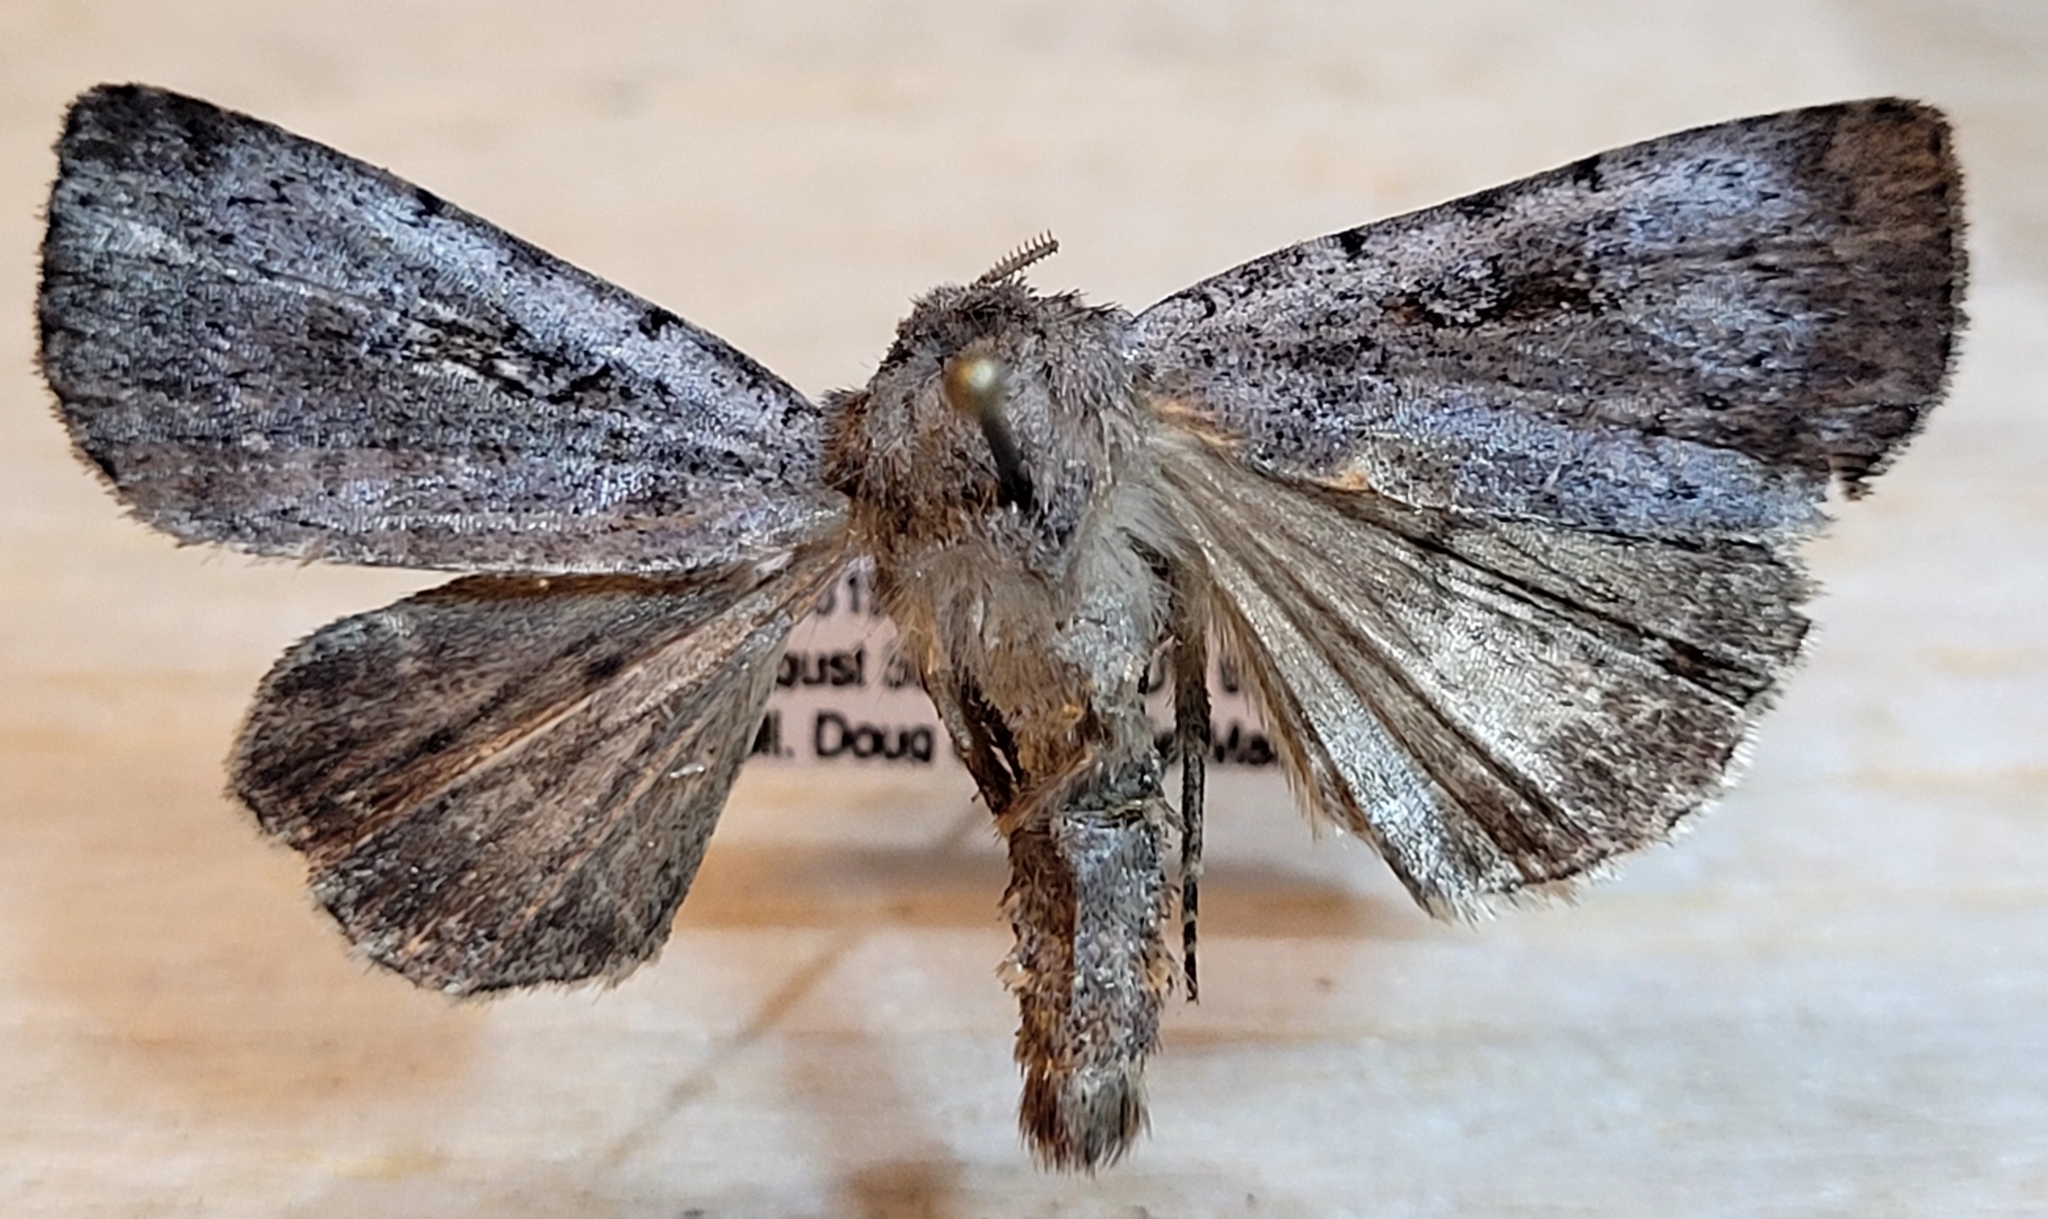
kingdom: Animalia
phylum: Arthropoda
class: Insecta
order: Lepidoptera
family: Noctuidae
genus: Coenophila
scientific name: Coenophila opacifrons
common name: Blueberry dart
